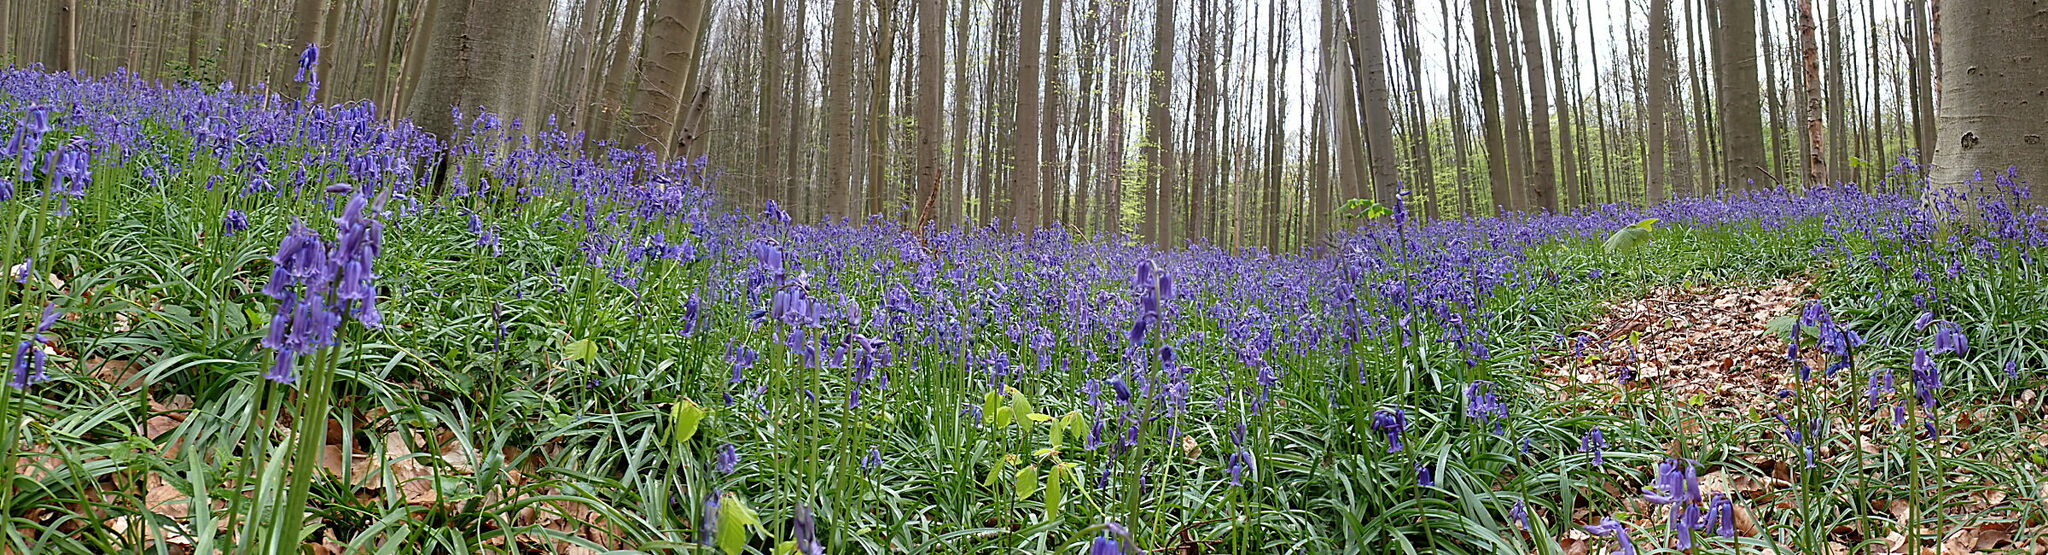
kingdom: Plantae
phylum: Tracheophyta
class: Liliopsida
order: Asparagales
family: Asparagaceae
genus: Hyacinthoides
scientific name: Hyacinthoides non-scripta
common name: Bluebell
